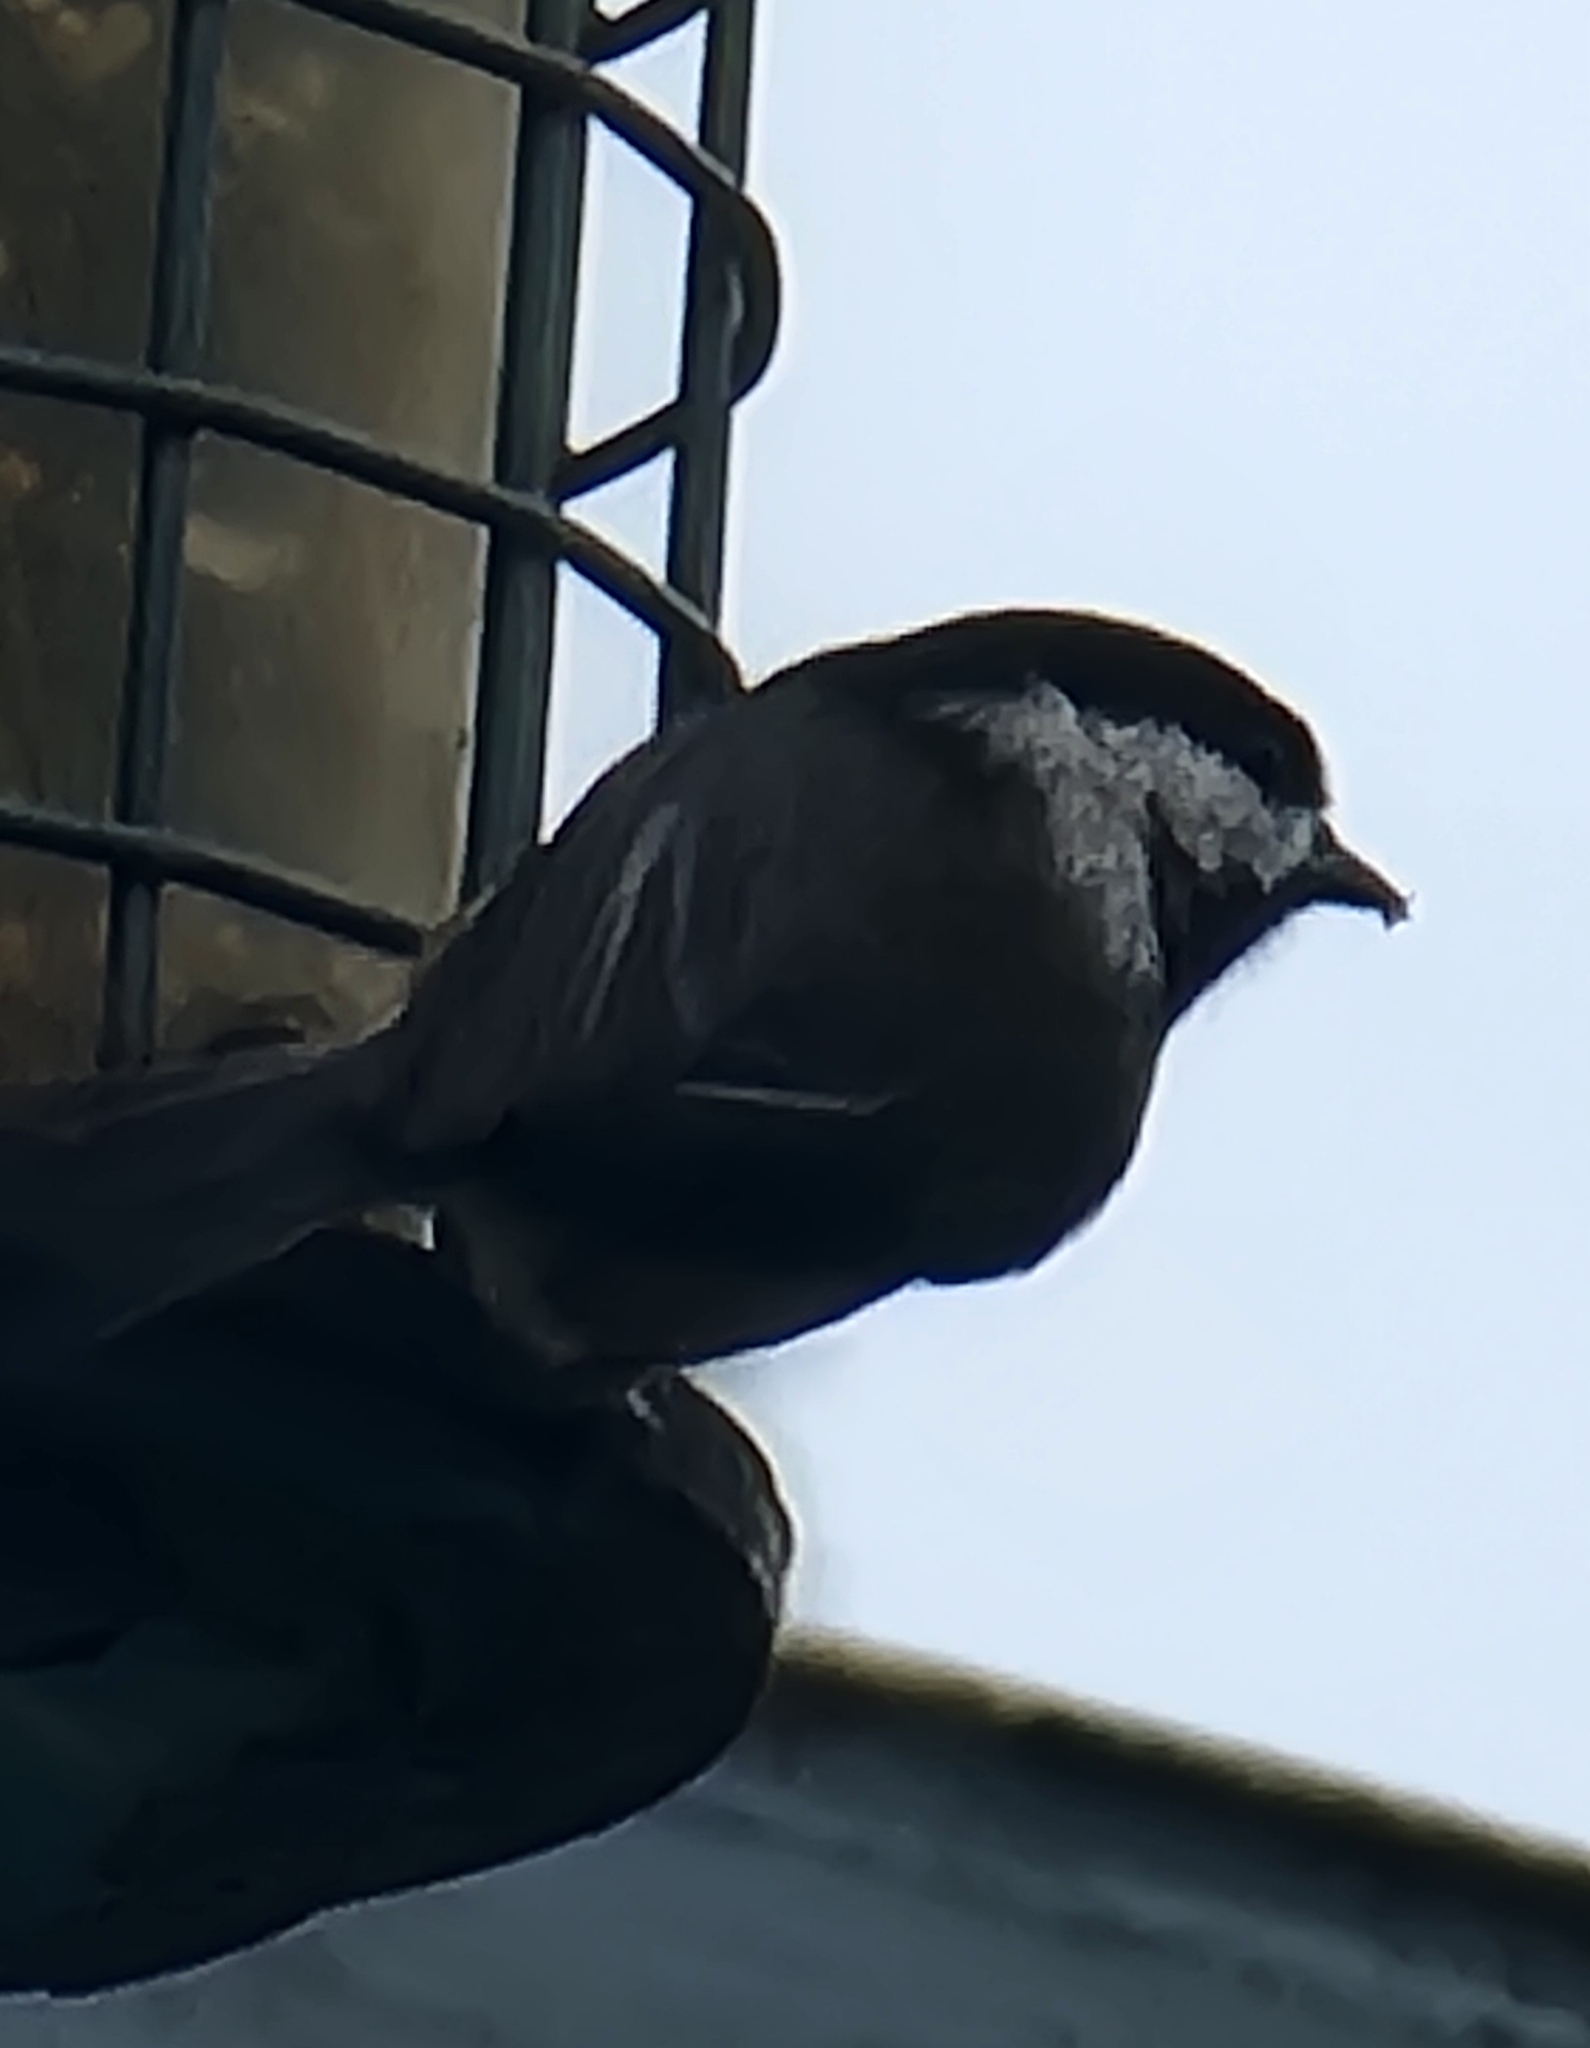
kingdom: Animalia
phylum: Chordata
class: Aves
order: Passeriformes
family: Paridae
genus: Poecile
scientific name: Poecile atricapillus
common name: Black-capped chickadee
